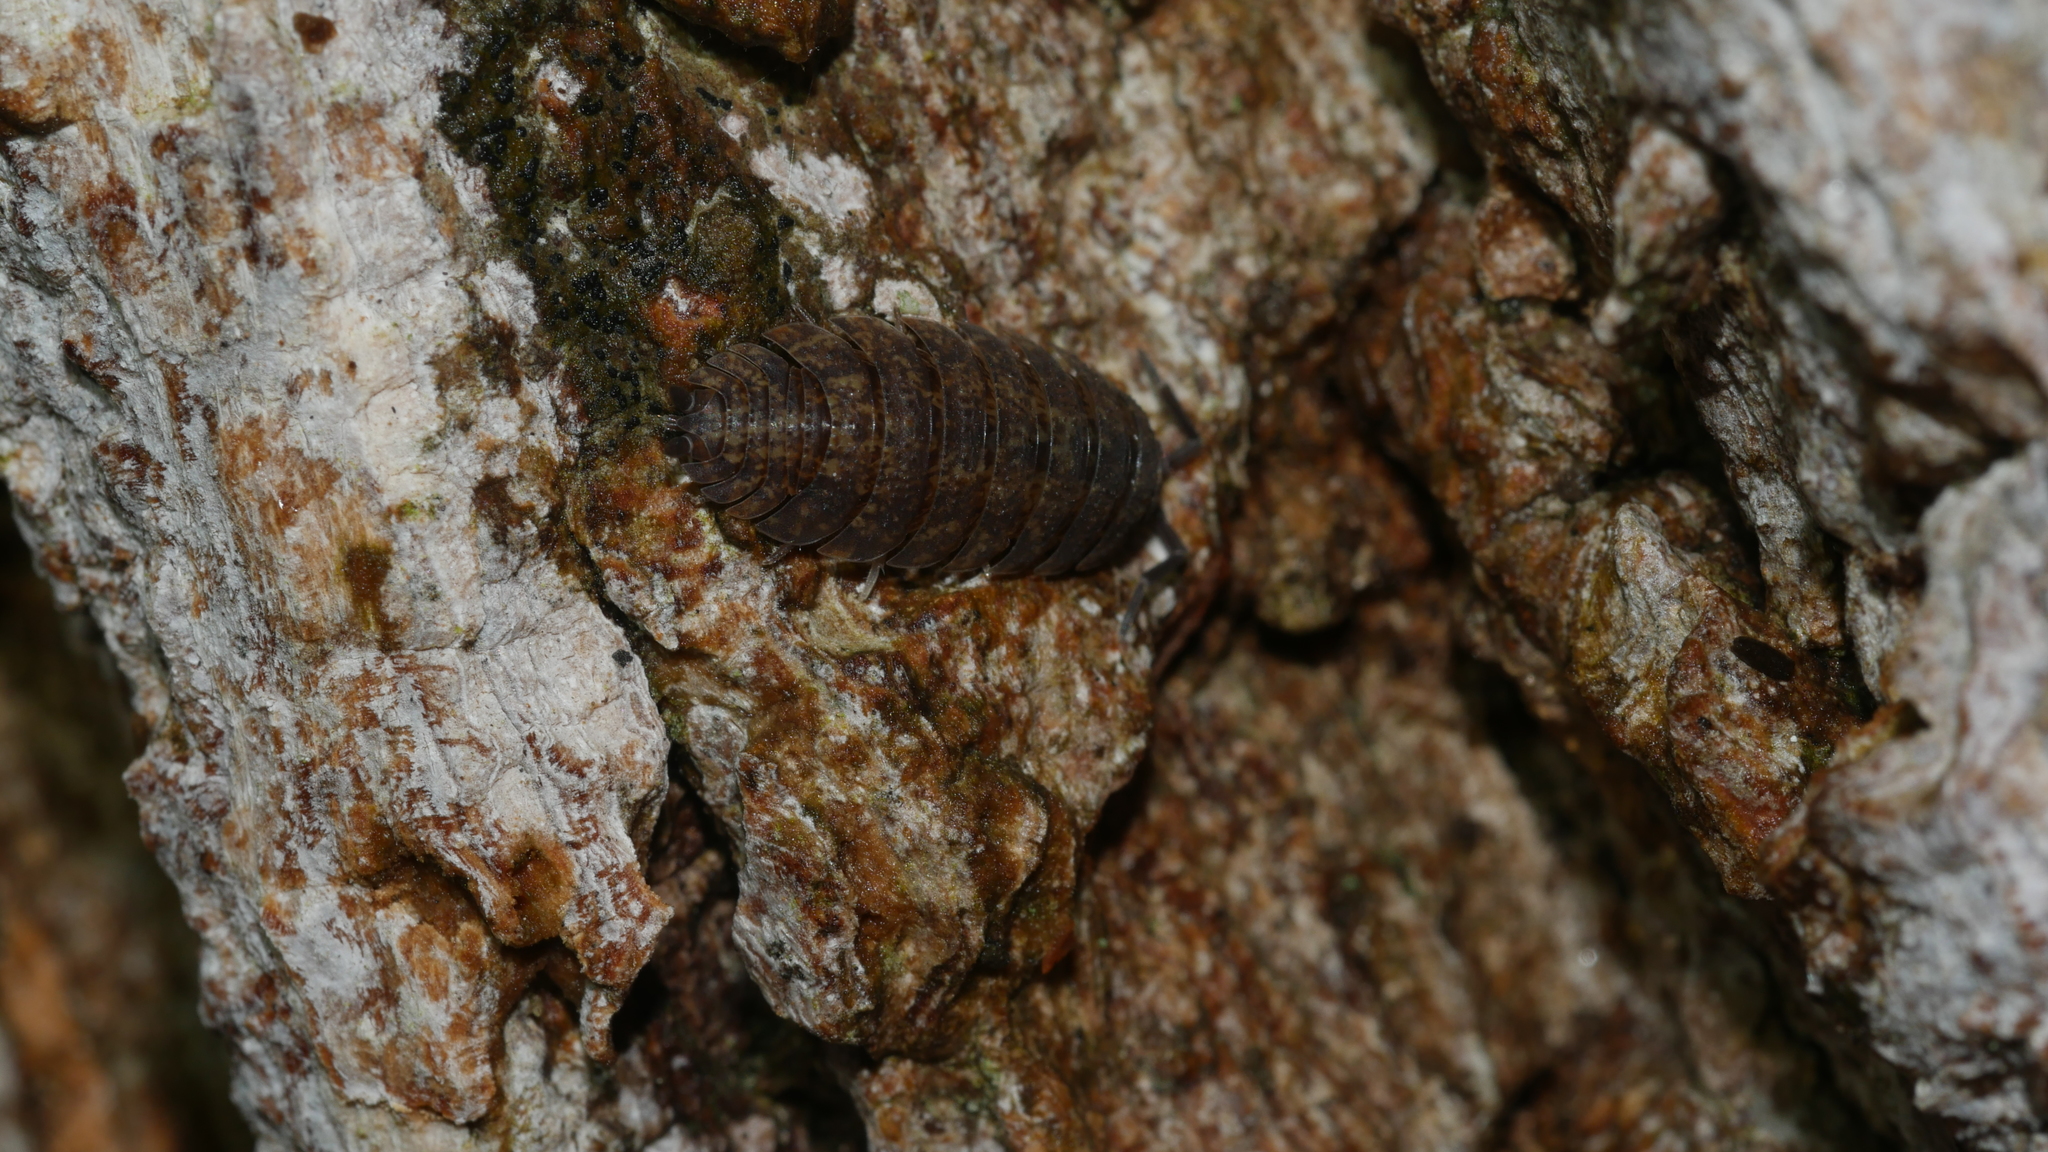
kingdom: Animalia
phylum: Arthropoda
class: Malacostraca
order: Isopoda
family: Porcellionidae
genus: Porcellio
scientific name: Porcellio scaber
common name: Common rough woodlouse
